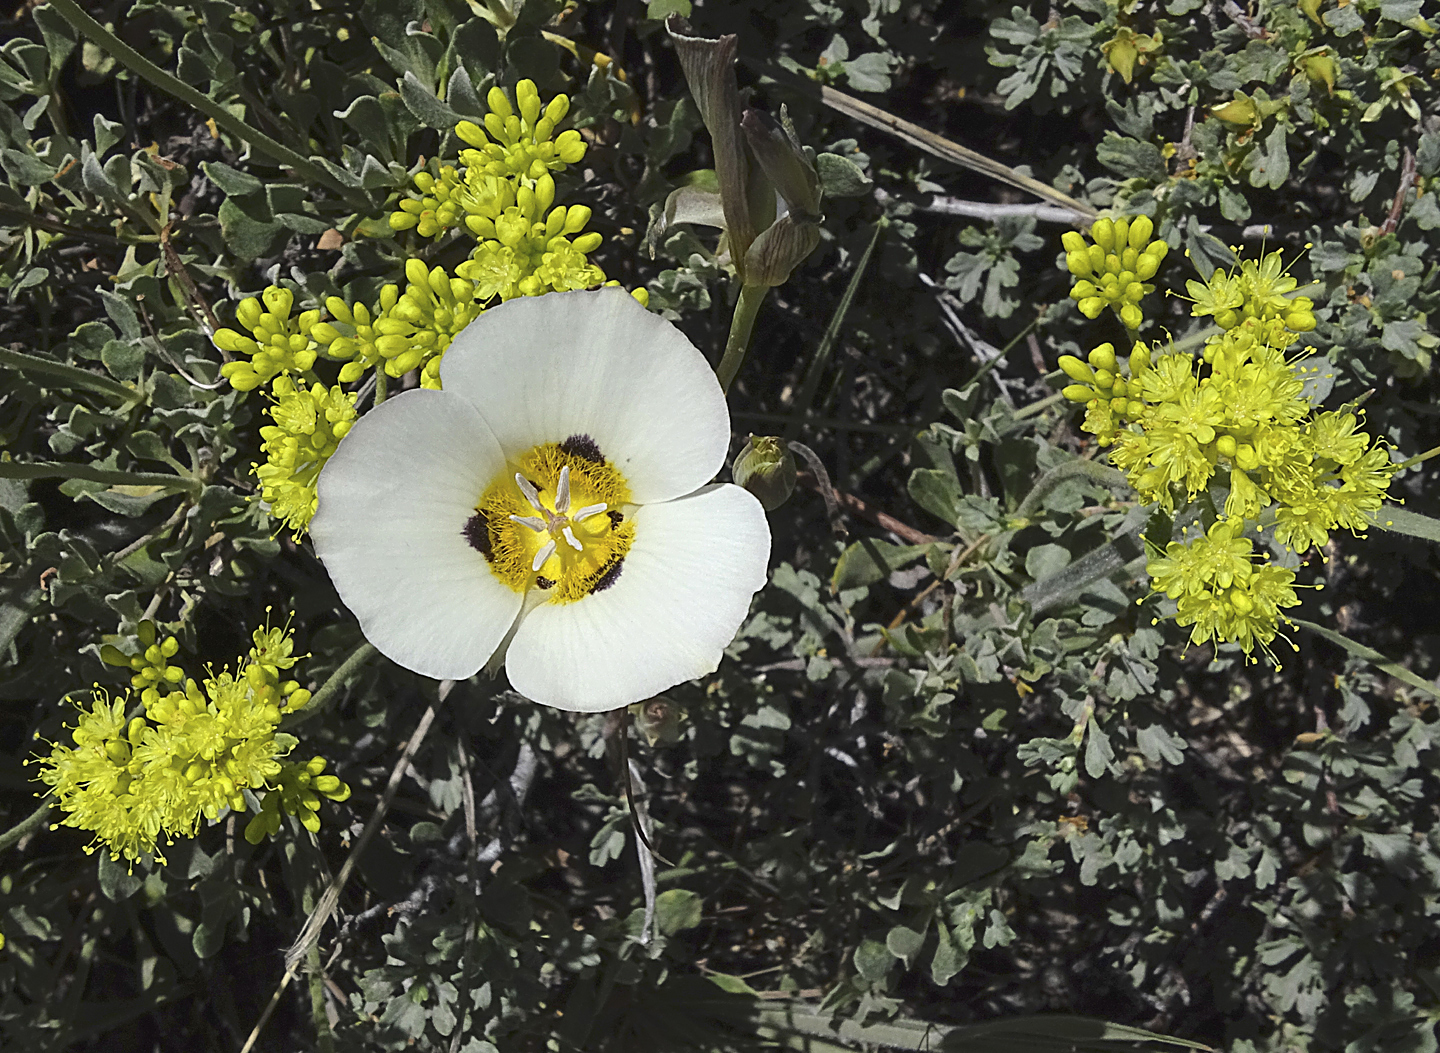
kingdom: Plantae
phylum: Tracheophyta
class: Liliopsida
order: Liliales
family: Liliaceae
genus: Calochortus
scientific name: Calochortus leichtlinii
